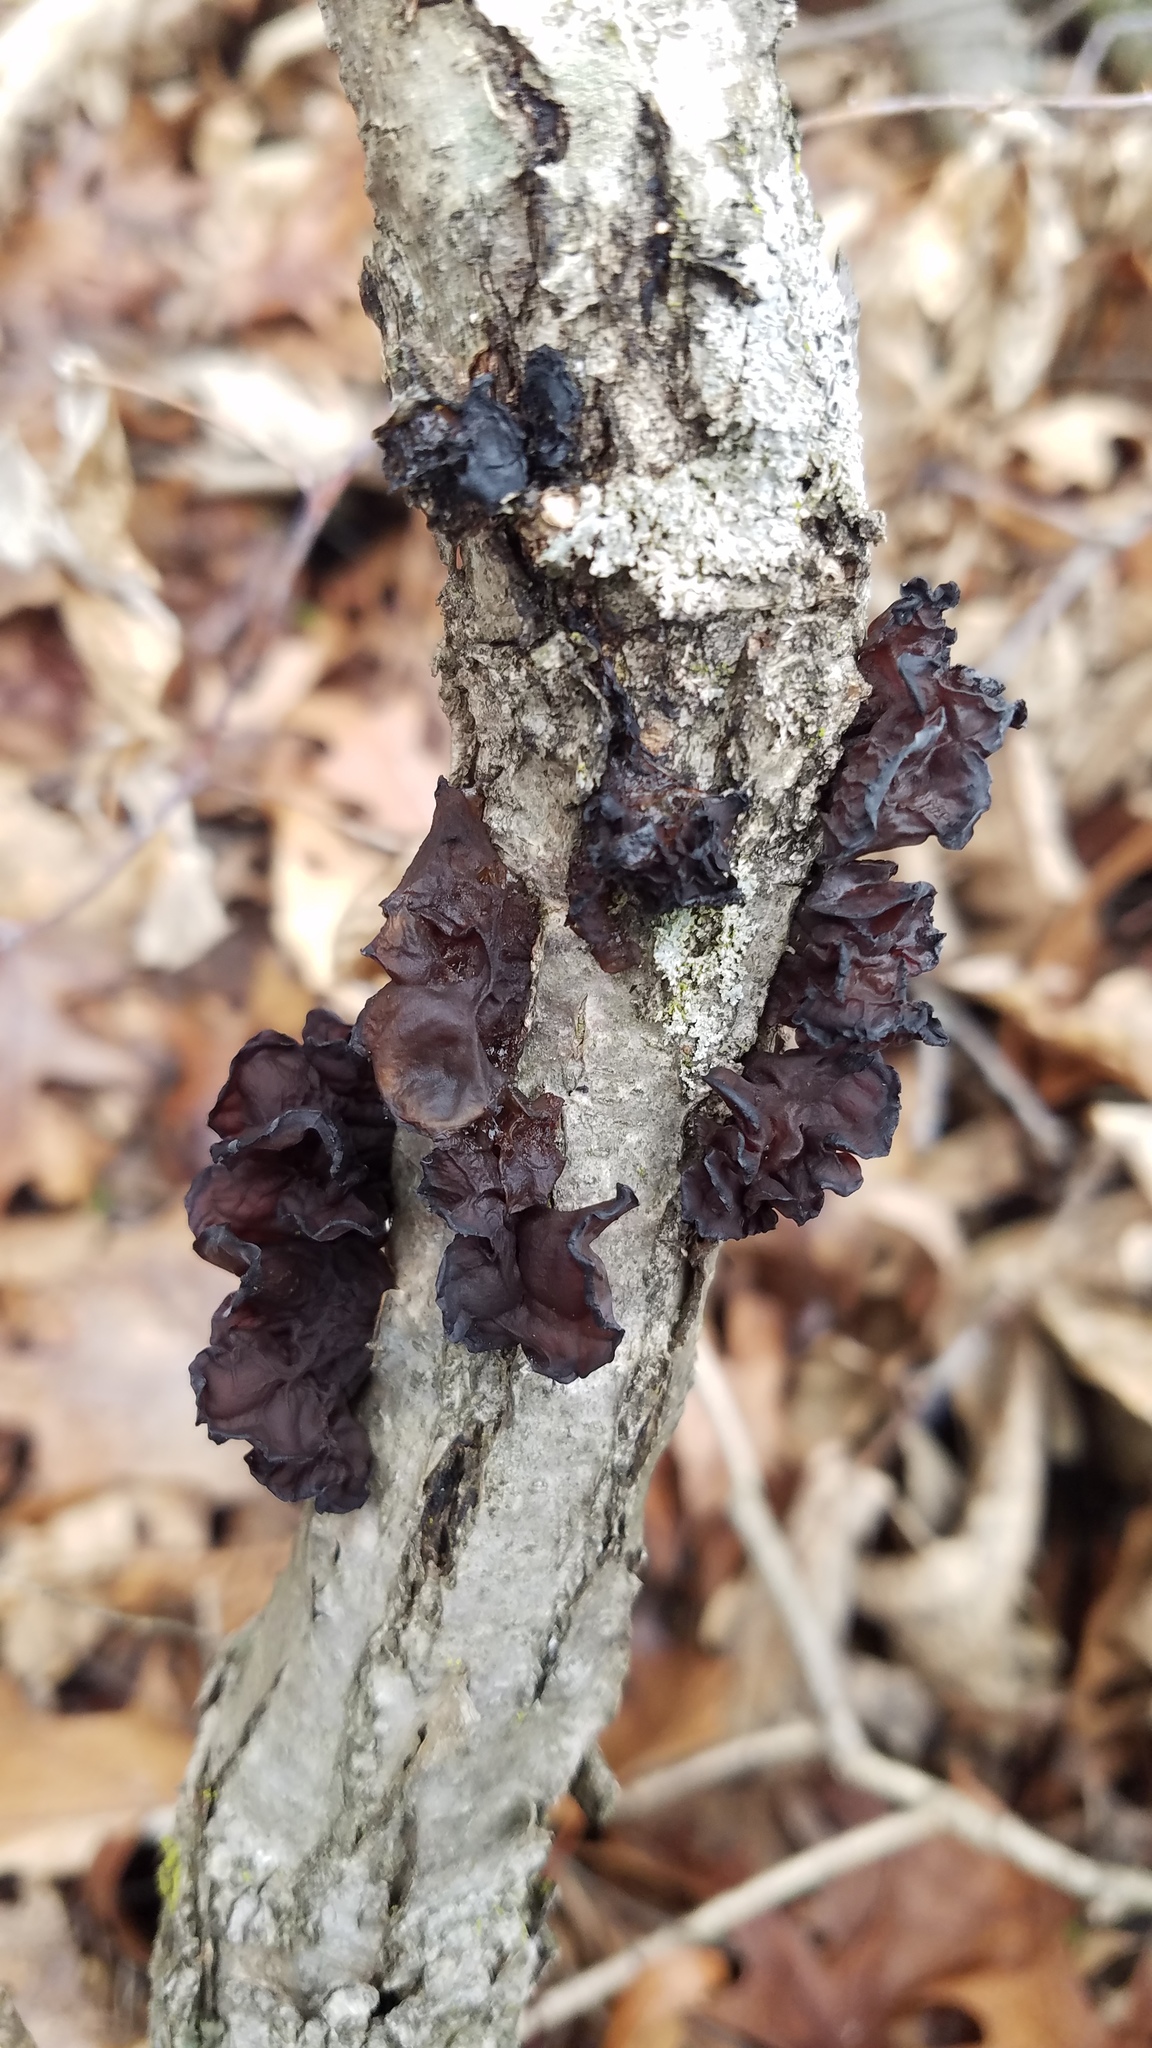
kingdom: Fungi
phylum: Basidiomycota
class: Agaricomycetes
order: Auriculariales
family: Auriculariaceae
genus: Exidia
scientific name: Exidia
